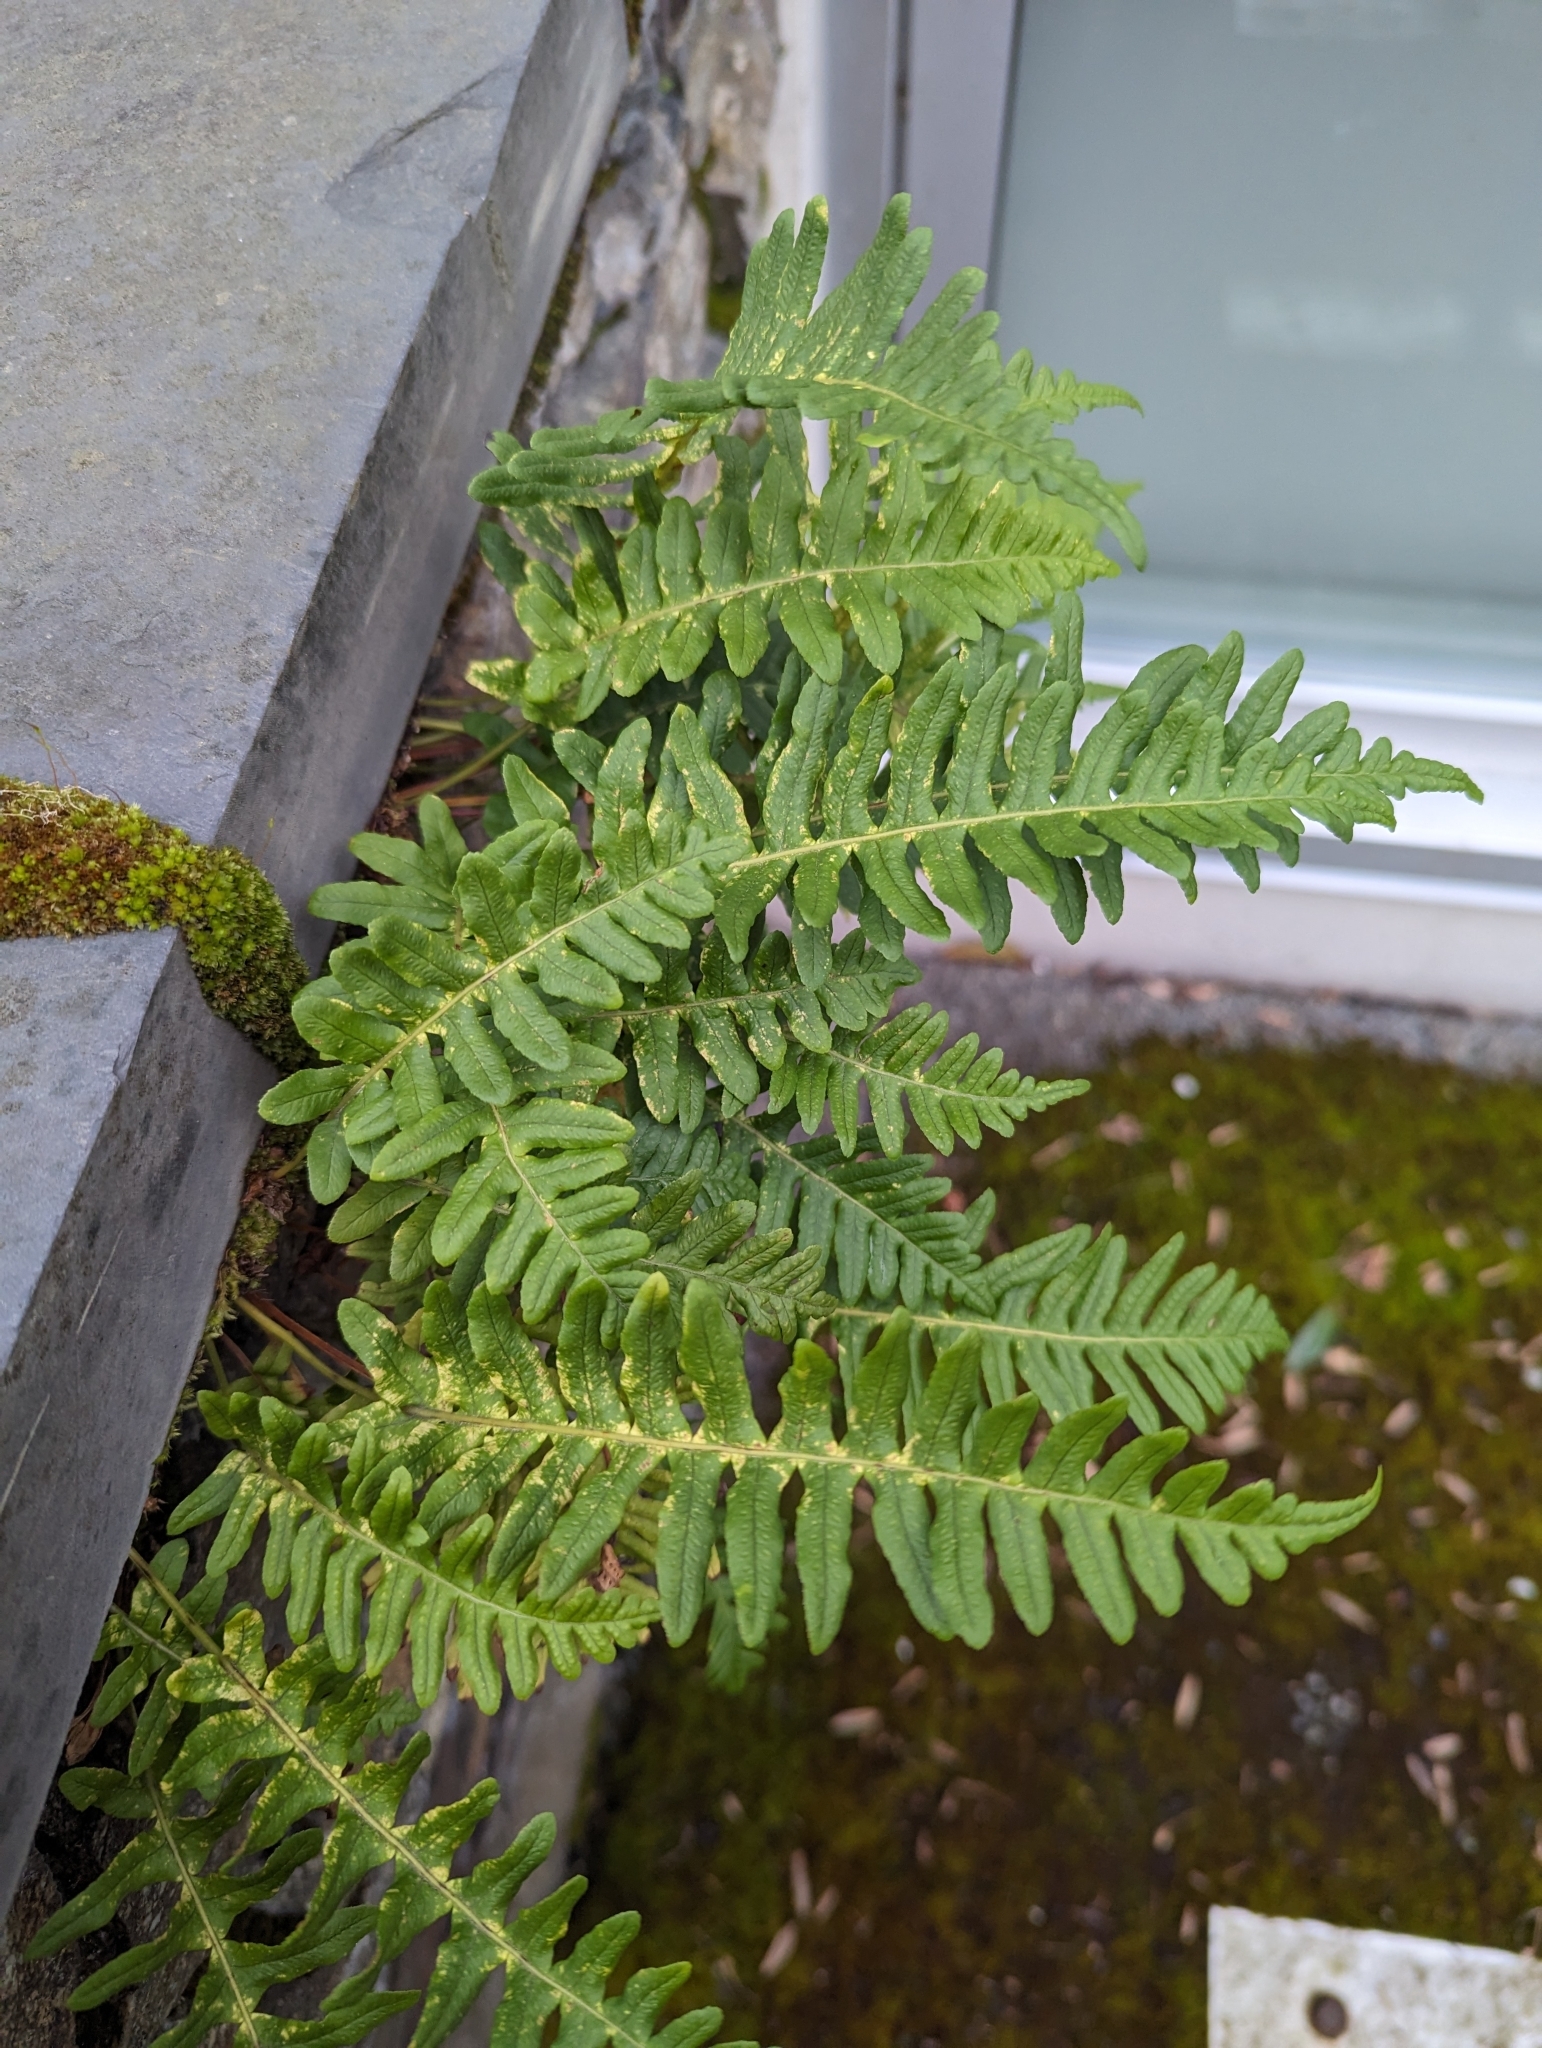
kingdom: Plantae
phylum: Tracheophyta
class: Polypodiopsida
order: Polypodiales
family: Polypodiaceae
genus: Polypodium
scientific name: Polypodium glycyrrhiza
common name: Licorice fern
